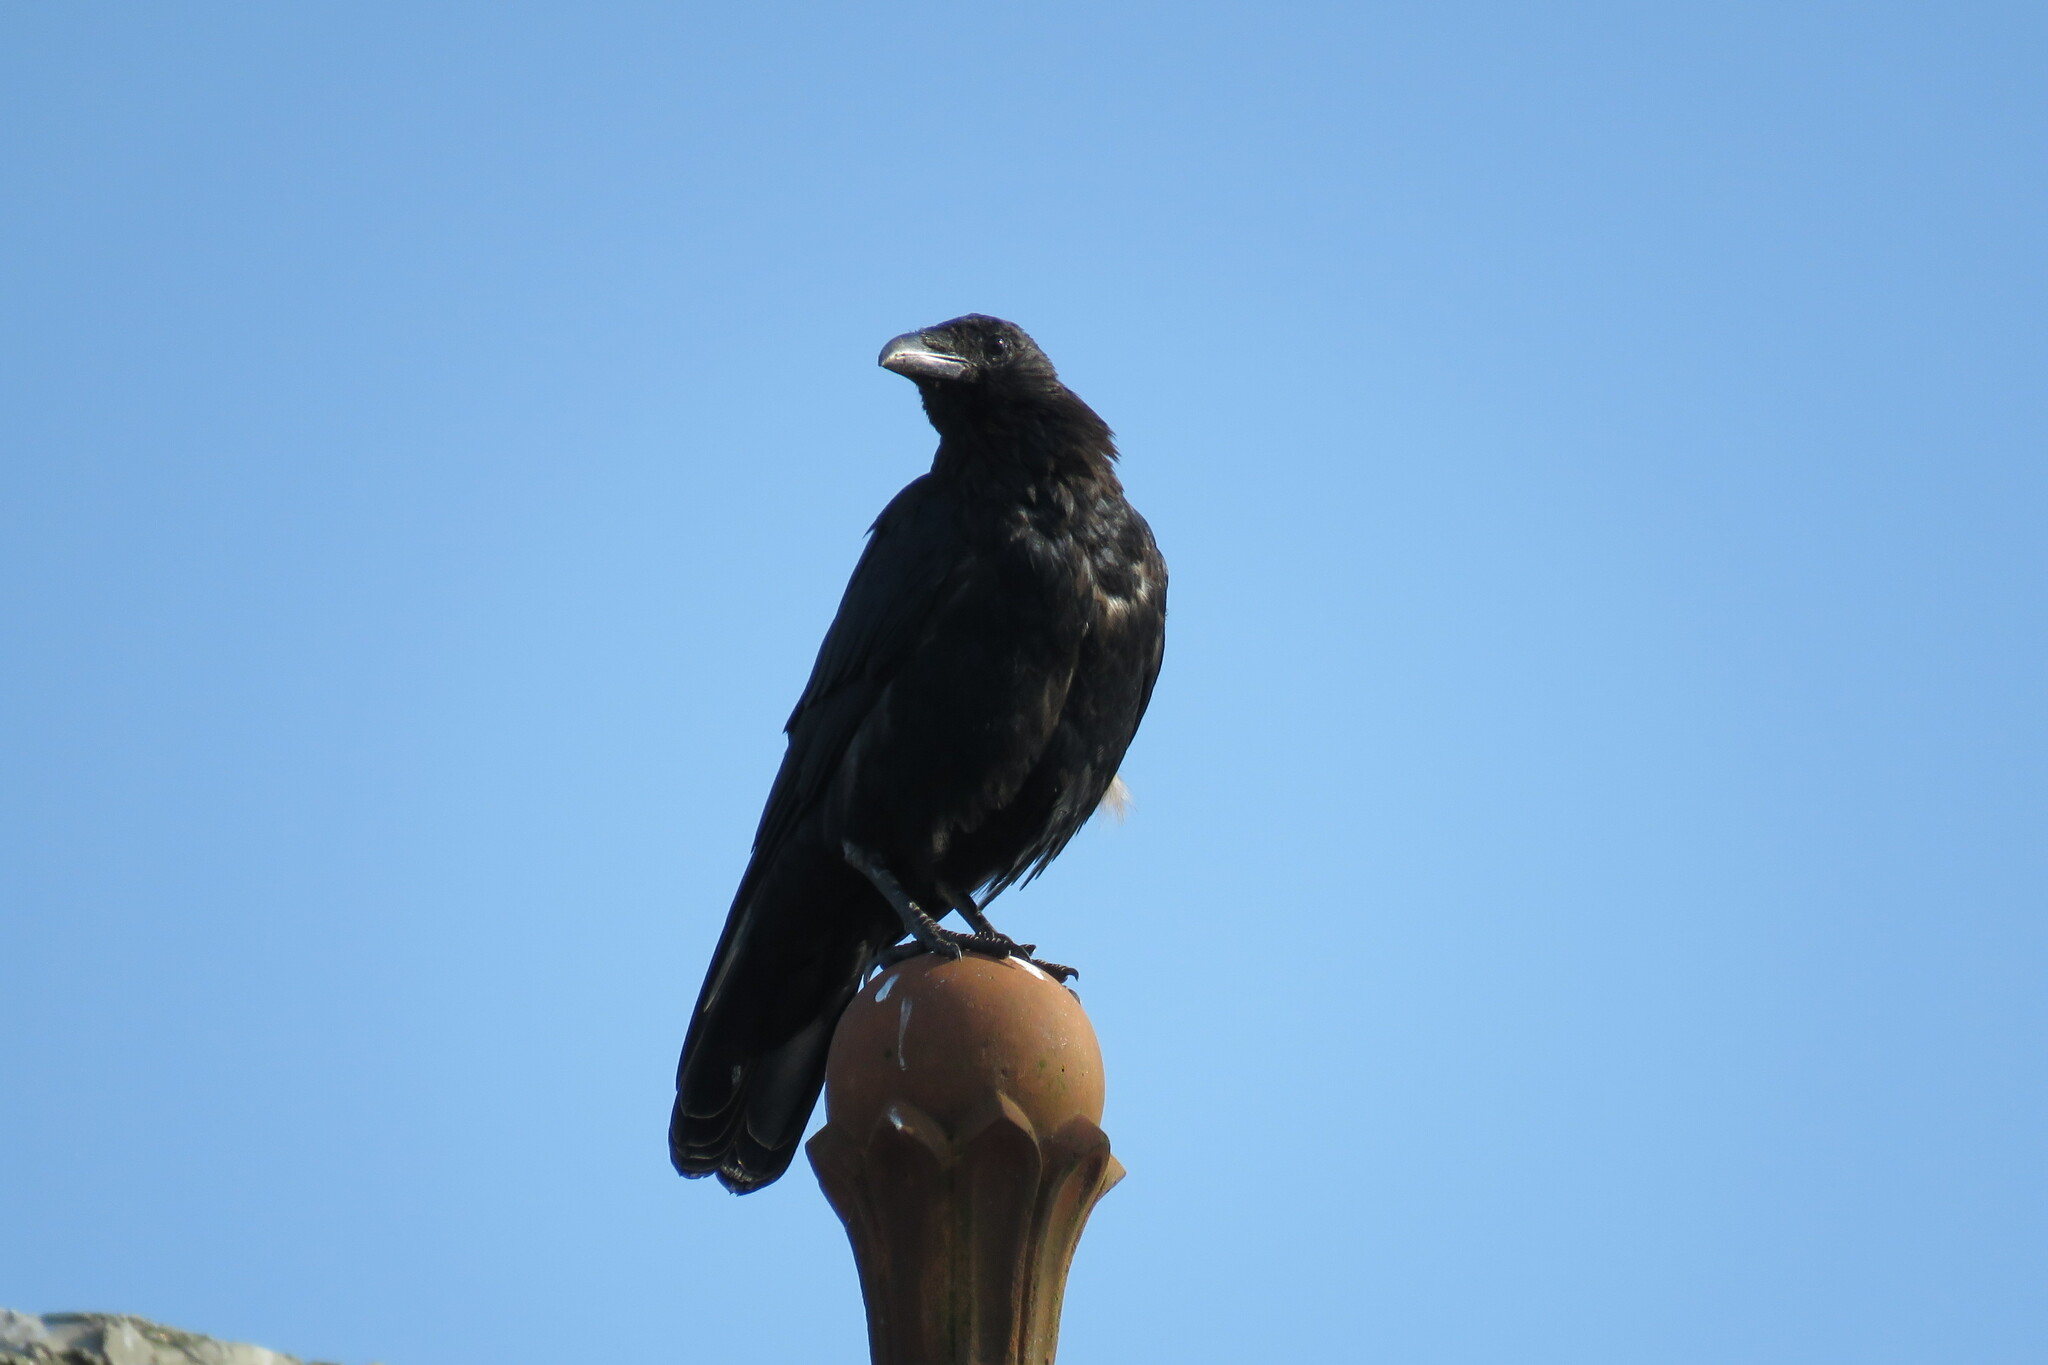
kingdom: Animalia
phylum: Chordata
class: Aves
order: Passeriformes
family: Corvidae
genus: Corvus
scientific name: Corvus corone
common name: Carrion crow
